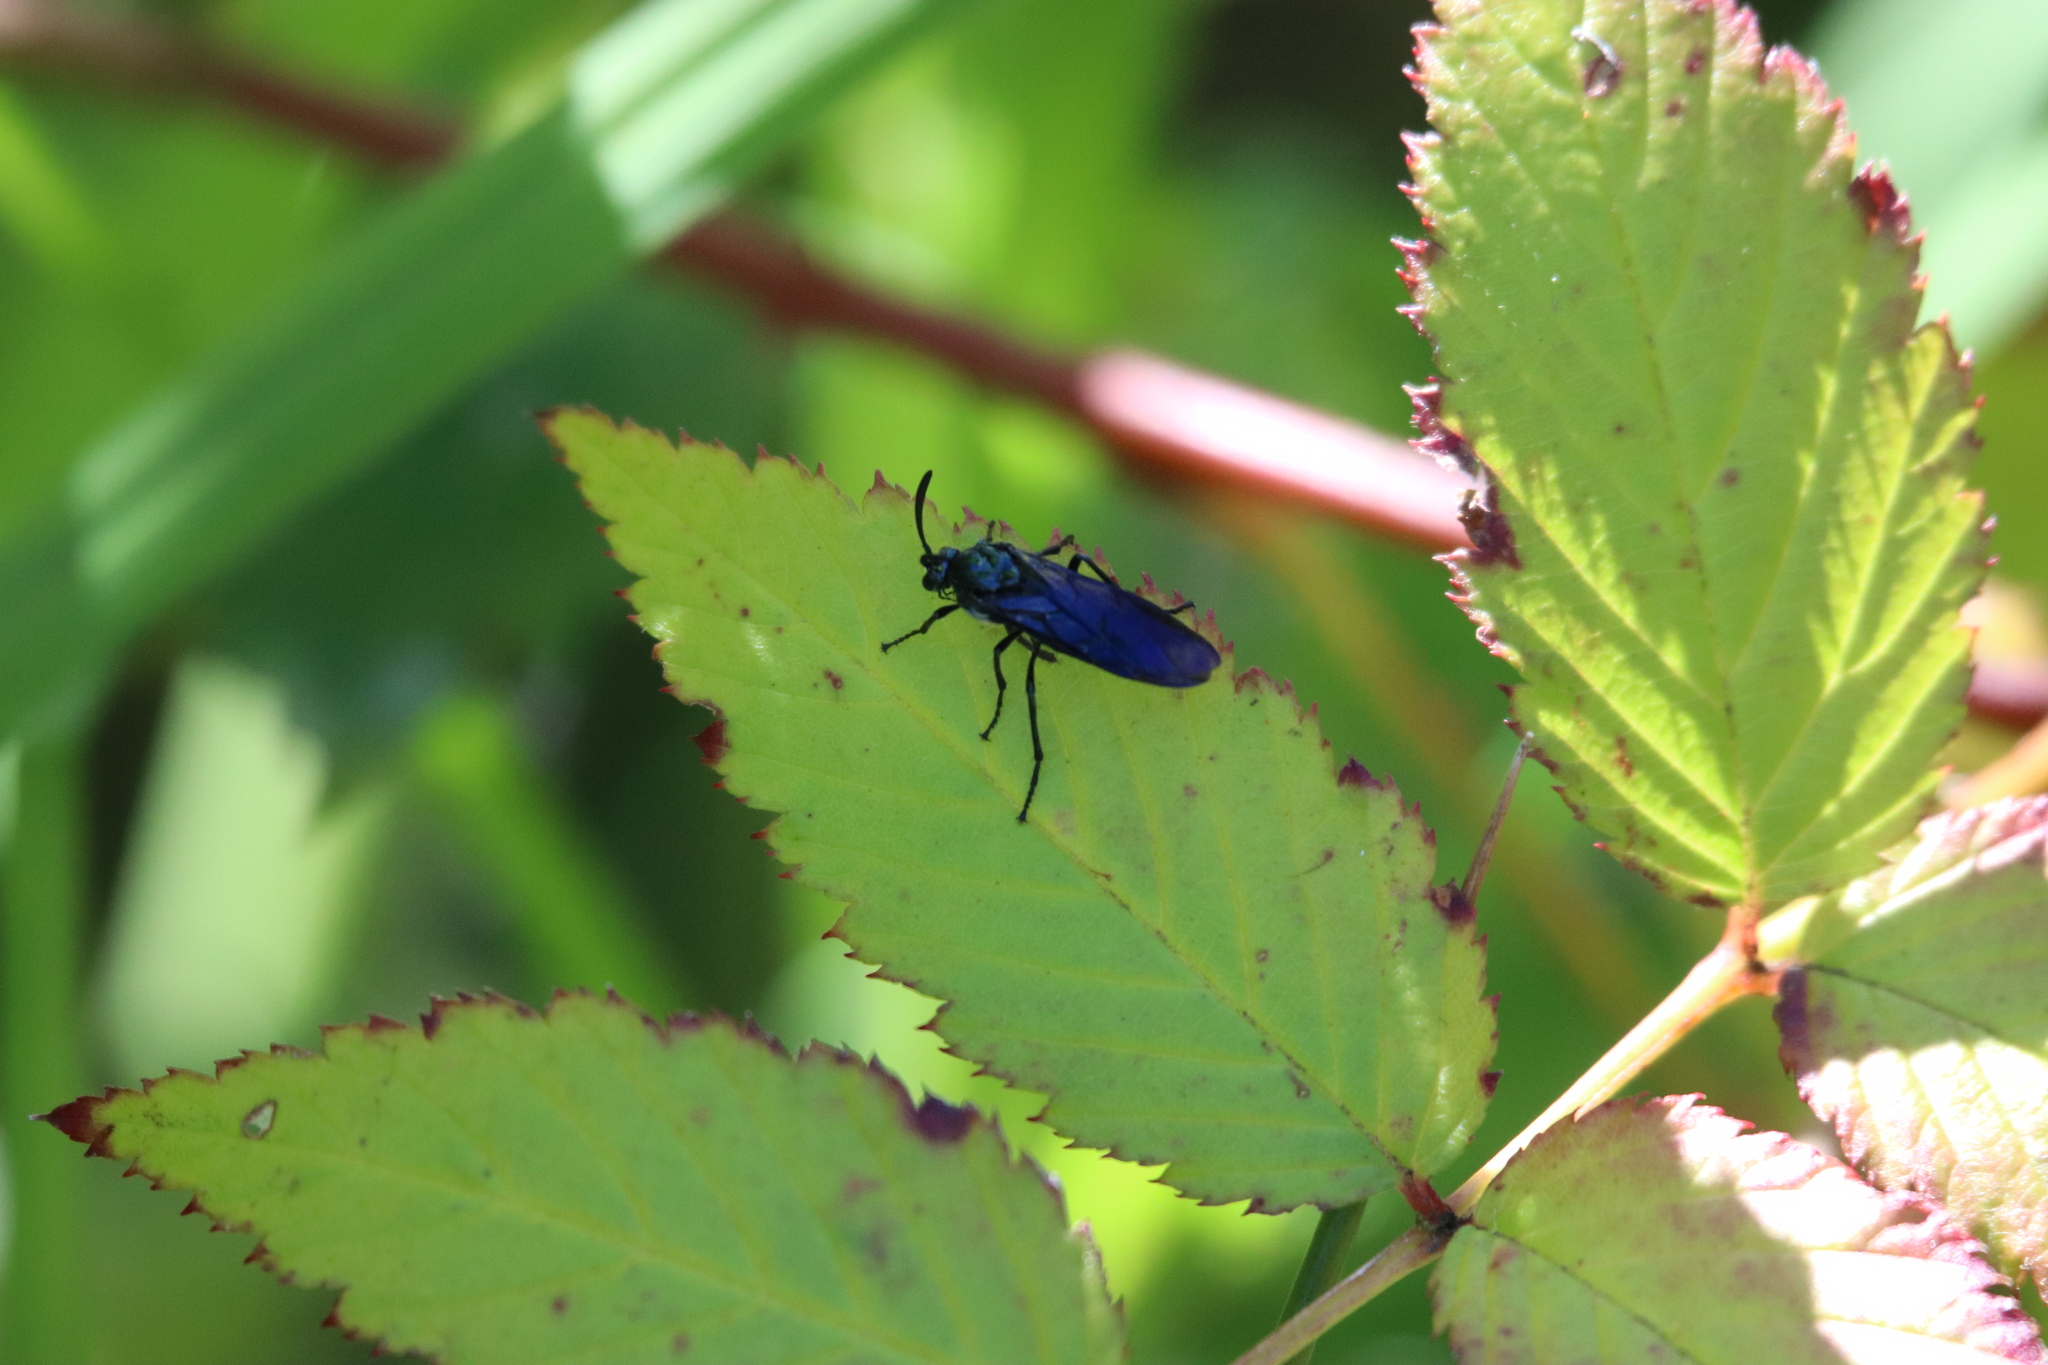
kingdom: Animalia
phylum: Arthropoda
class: Insecta
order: Hymenoptera
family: Argidae
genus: Cibdela
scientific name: Cibdela janthina
